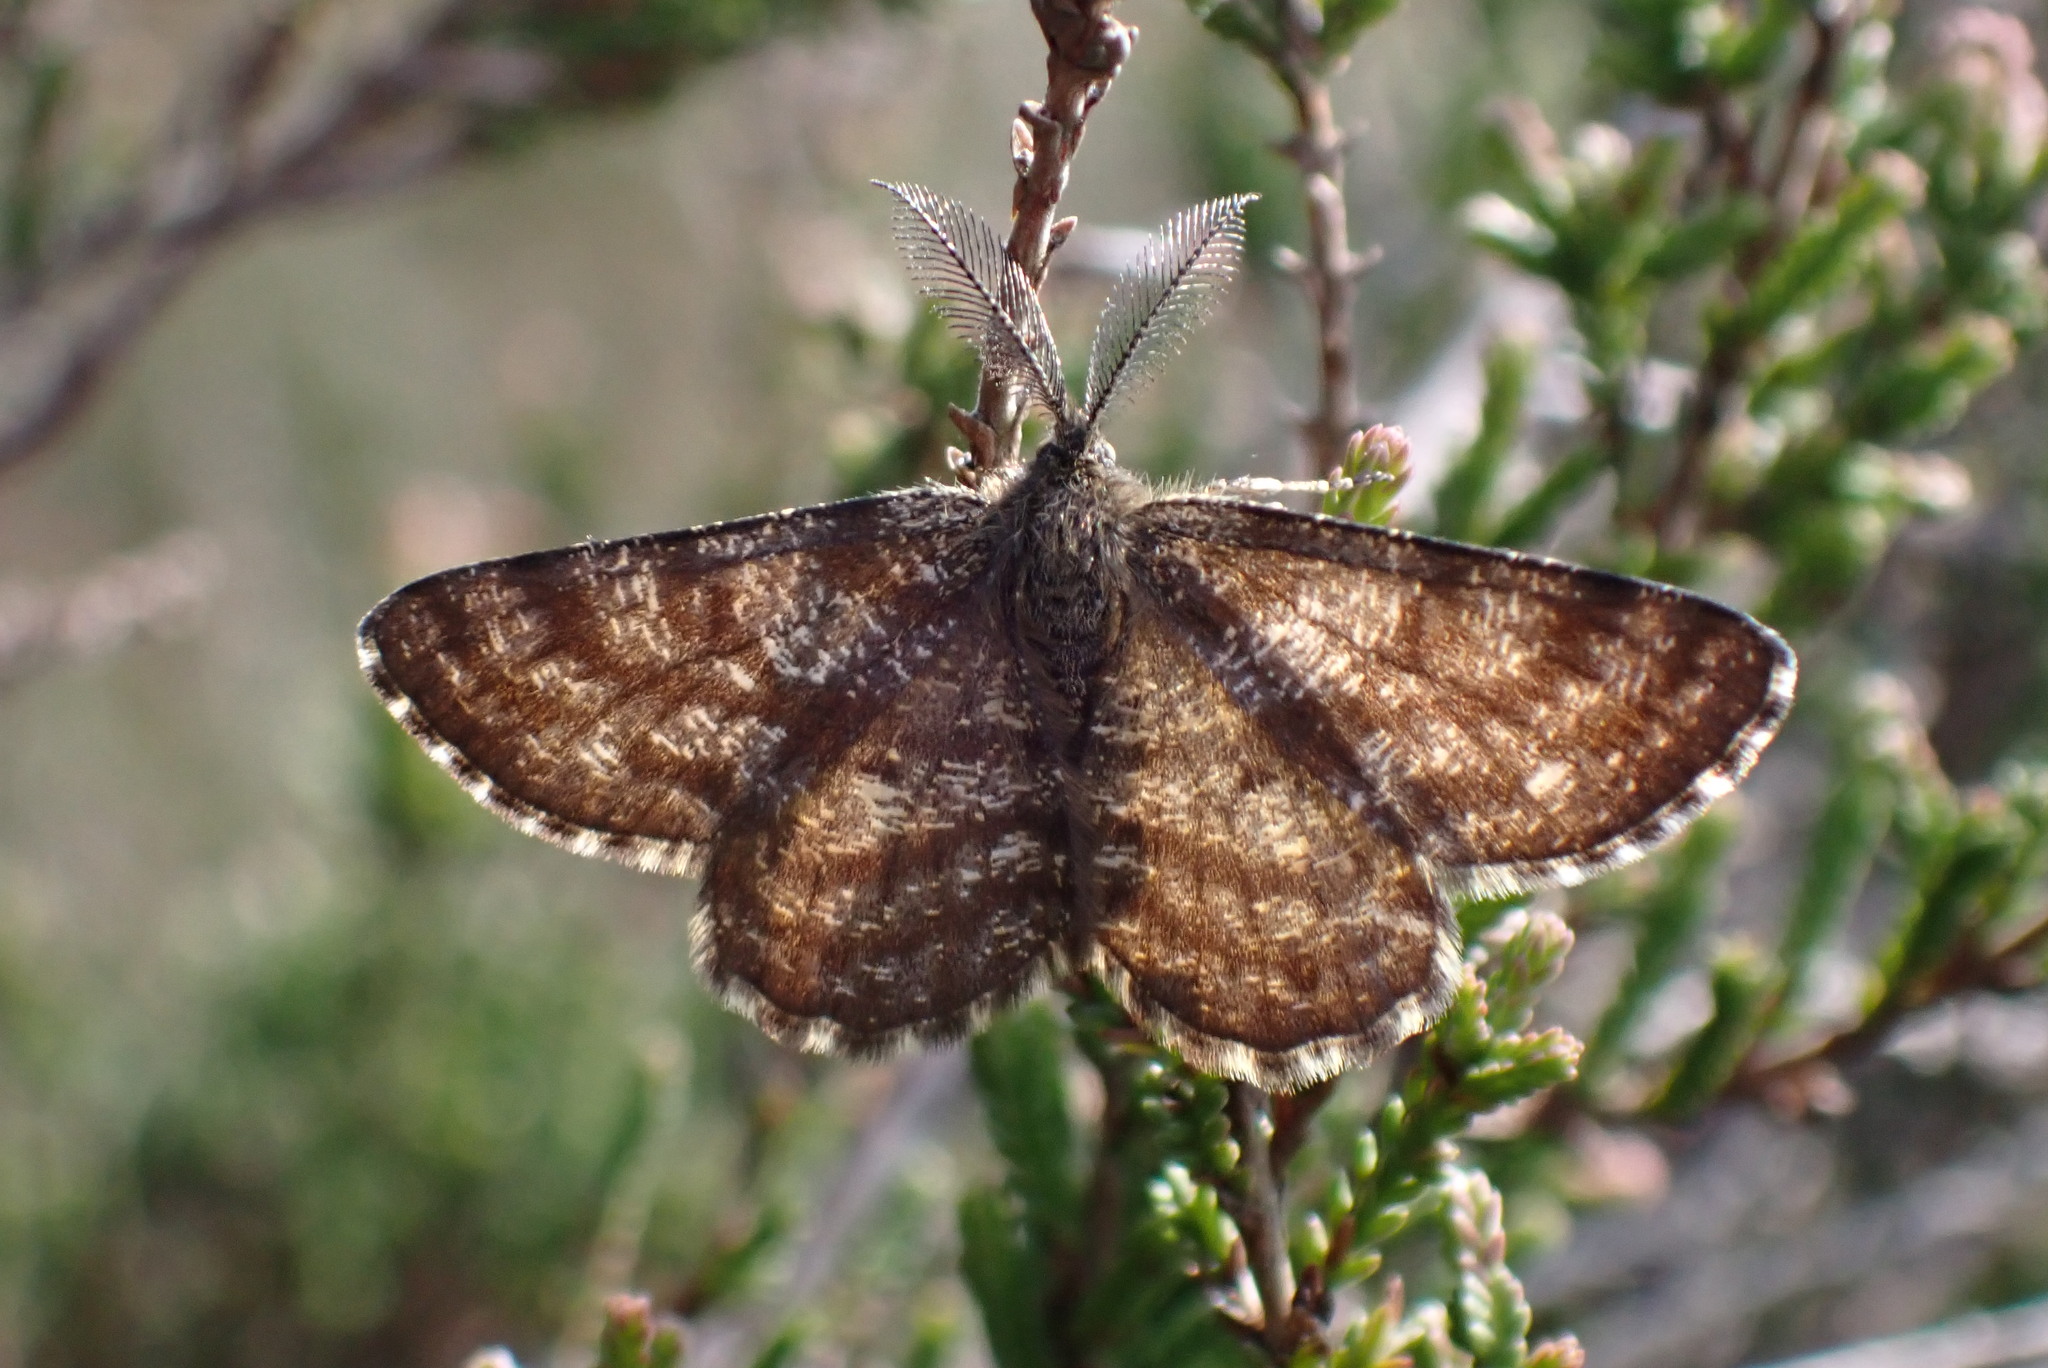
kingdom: Animalia
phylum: Arthropoda
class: Insecta
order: Lepidoptera
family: Geometridae
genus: Ematurga
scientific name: Ematurga atomaria
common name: Common heath
